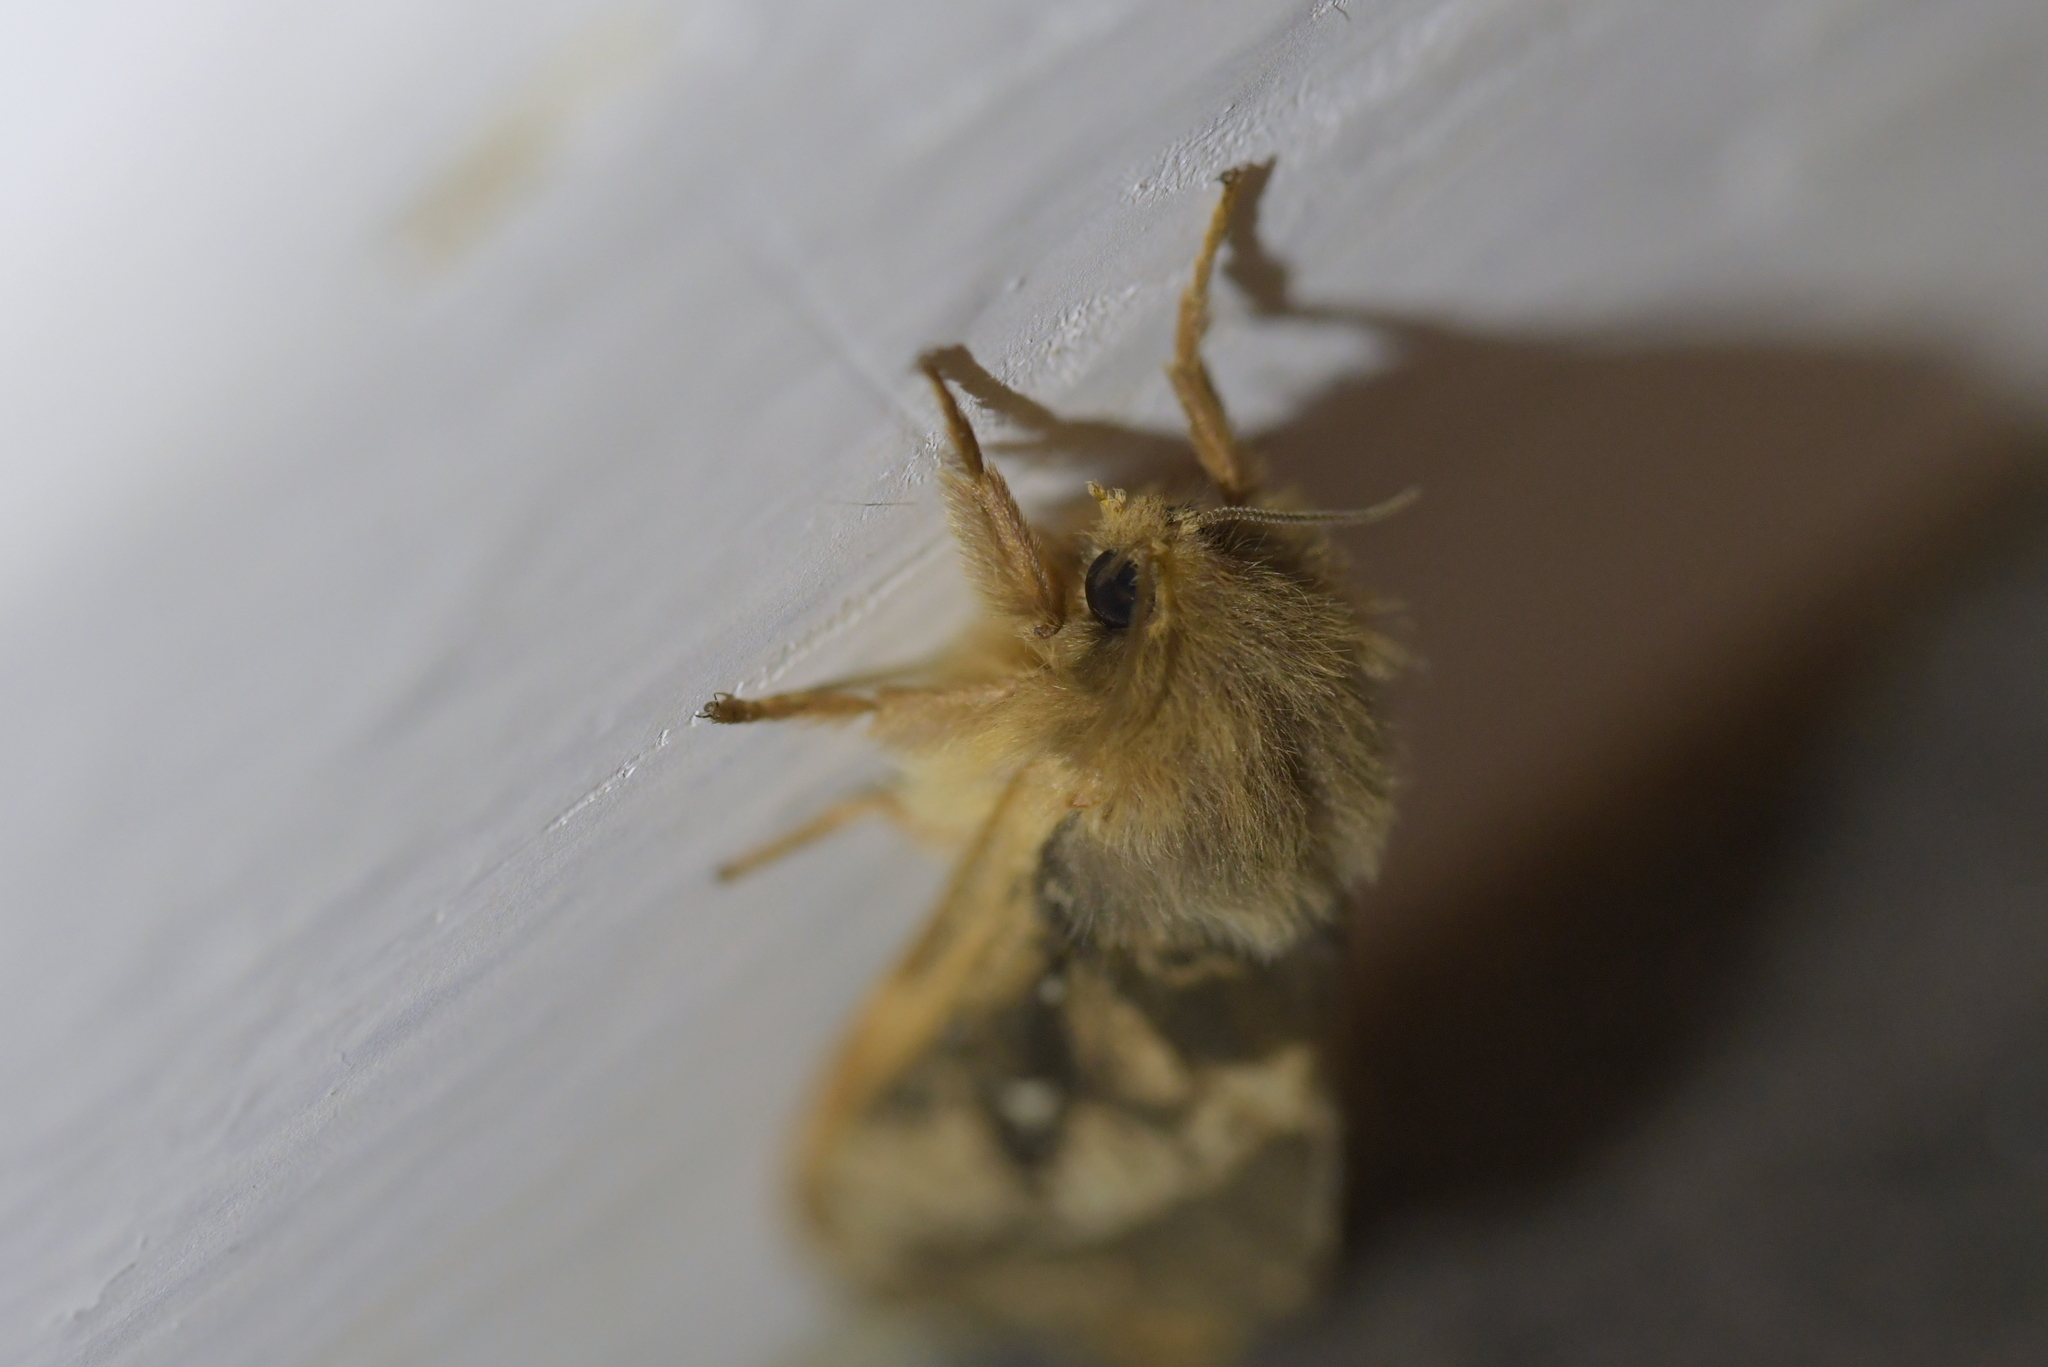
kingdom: Animalia
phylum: Arthropoda
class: Insecta
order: Lepidoptera
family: Hepialidae
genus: Wiseana
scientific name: Wiseana cervinata
